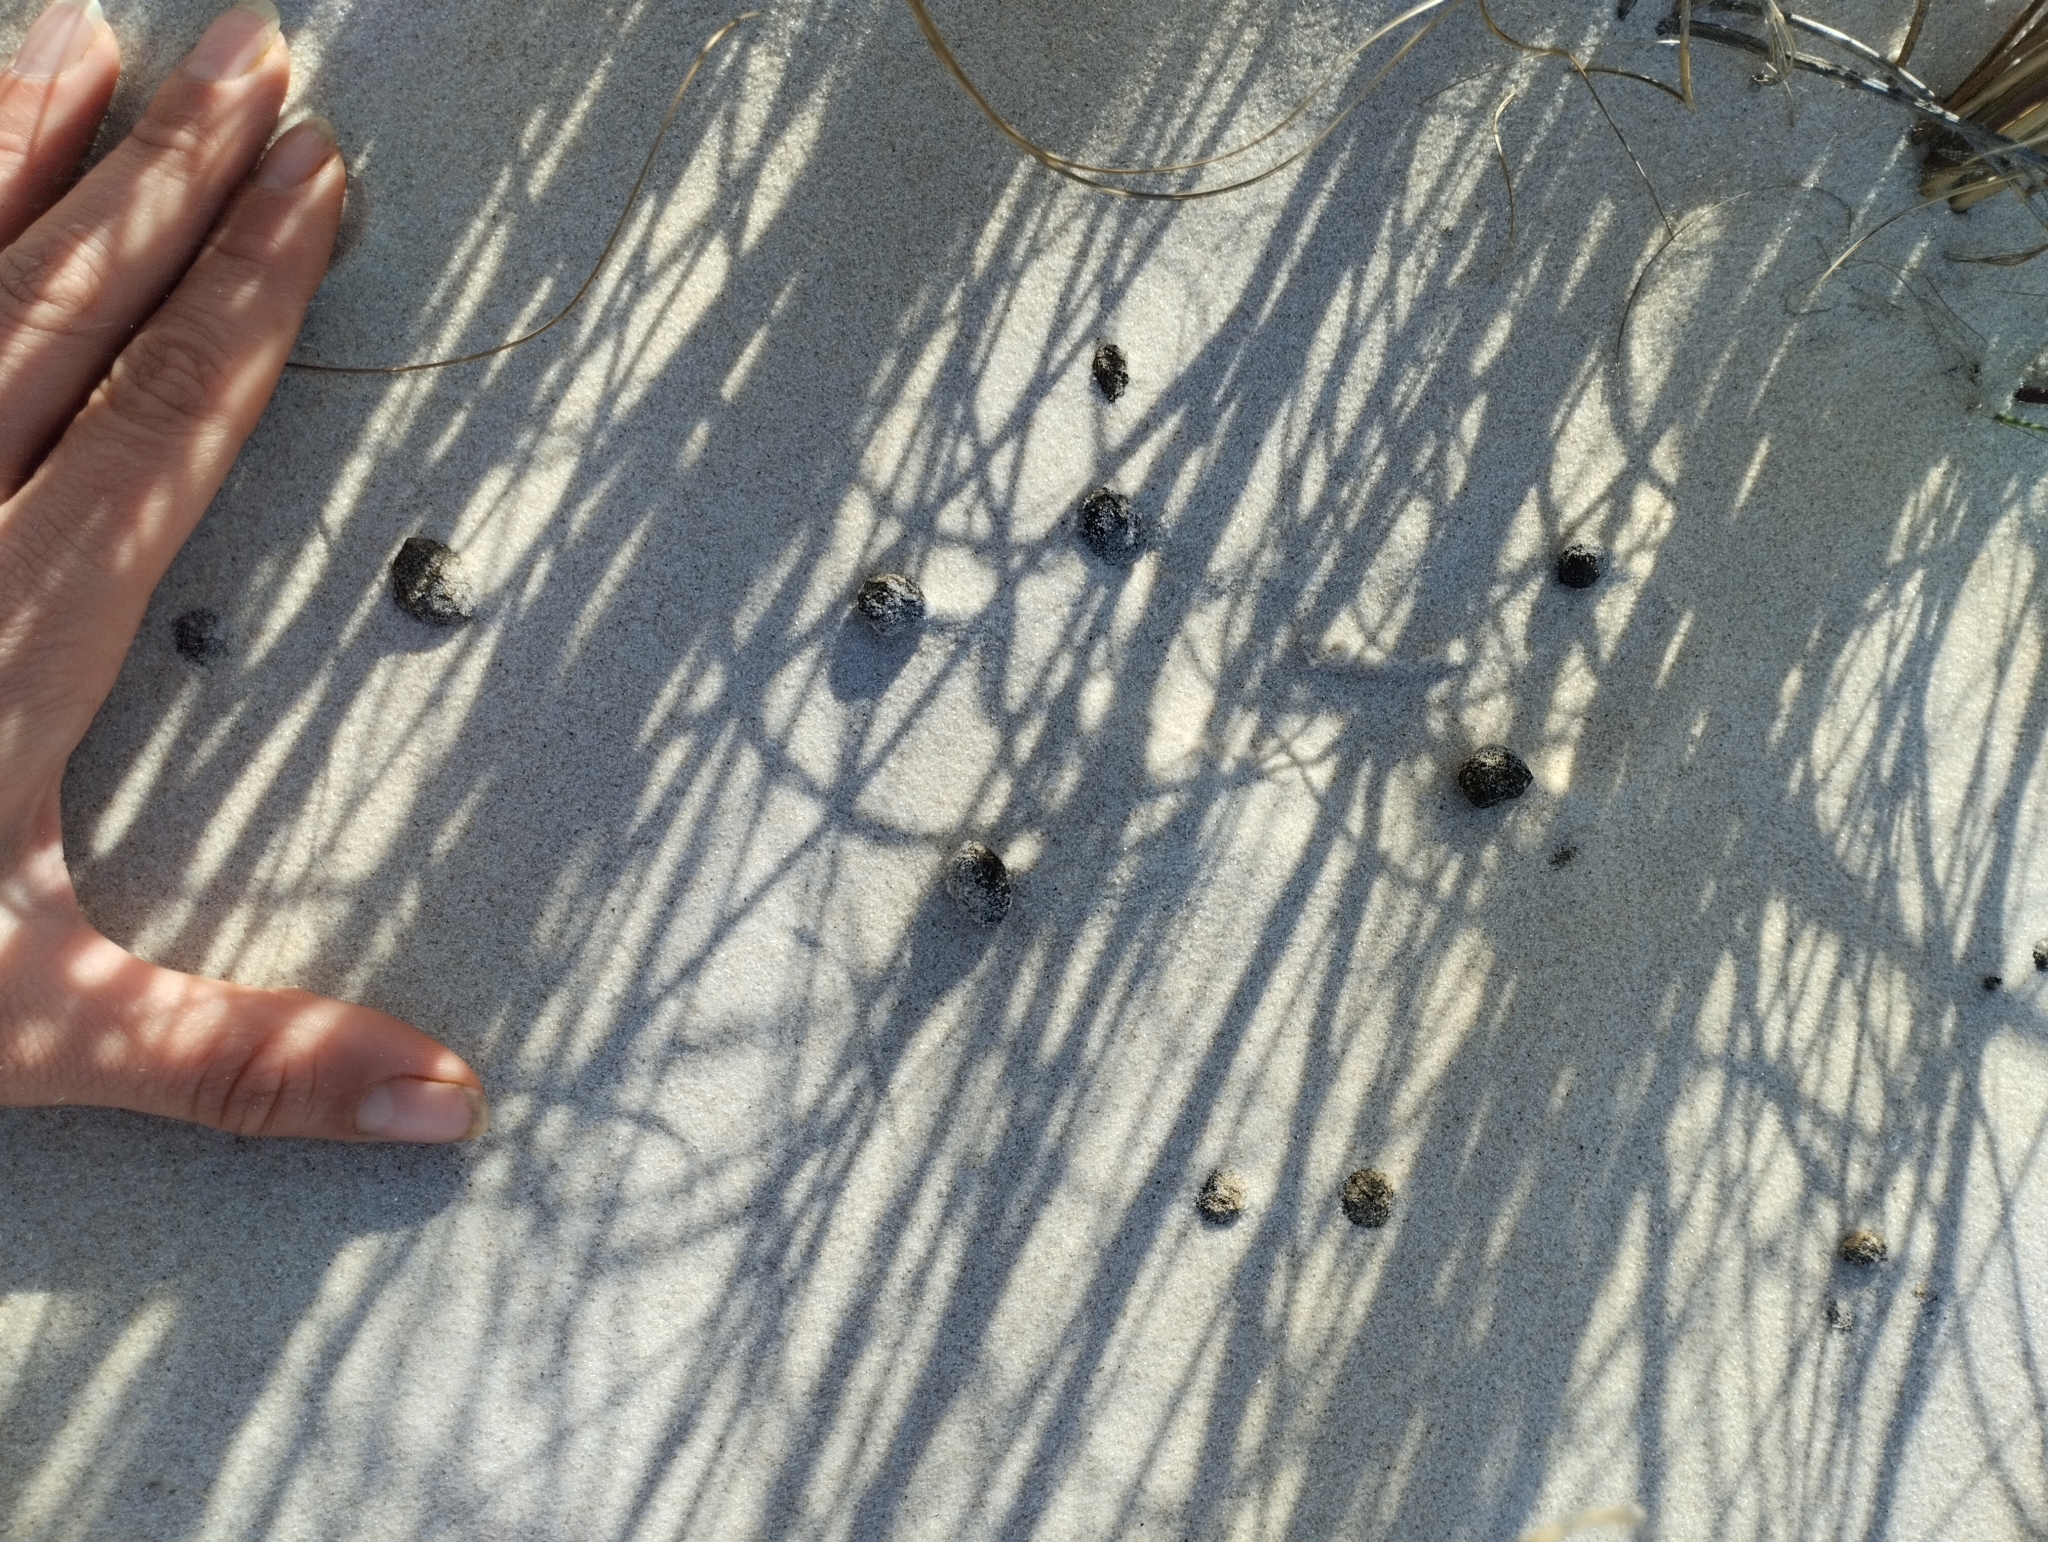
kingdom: Animalia
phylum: Chordata
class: Mammalia
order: Lagomorpha
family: Leporidae
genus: Lepus
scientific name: Lepus europaeus
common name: European hare
